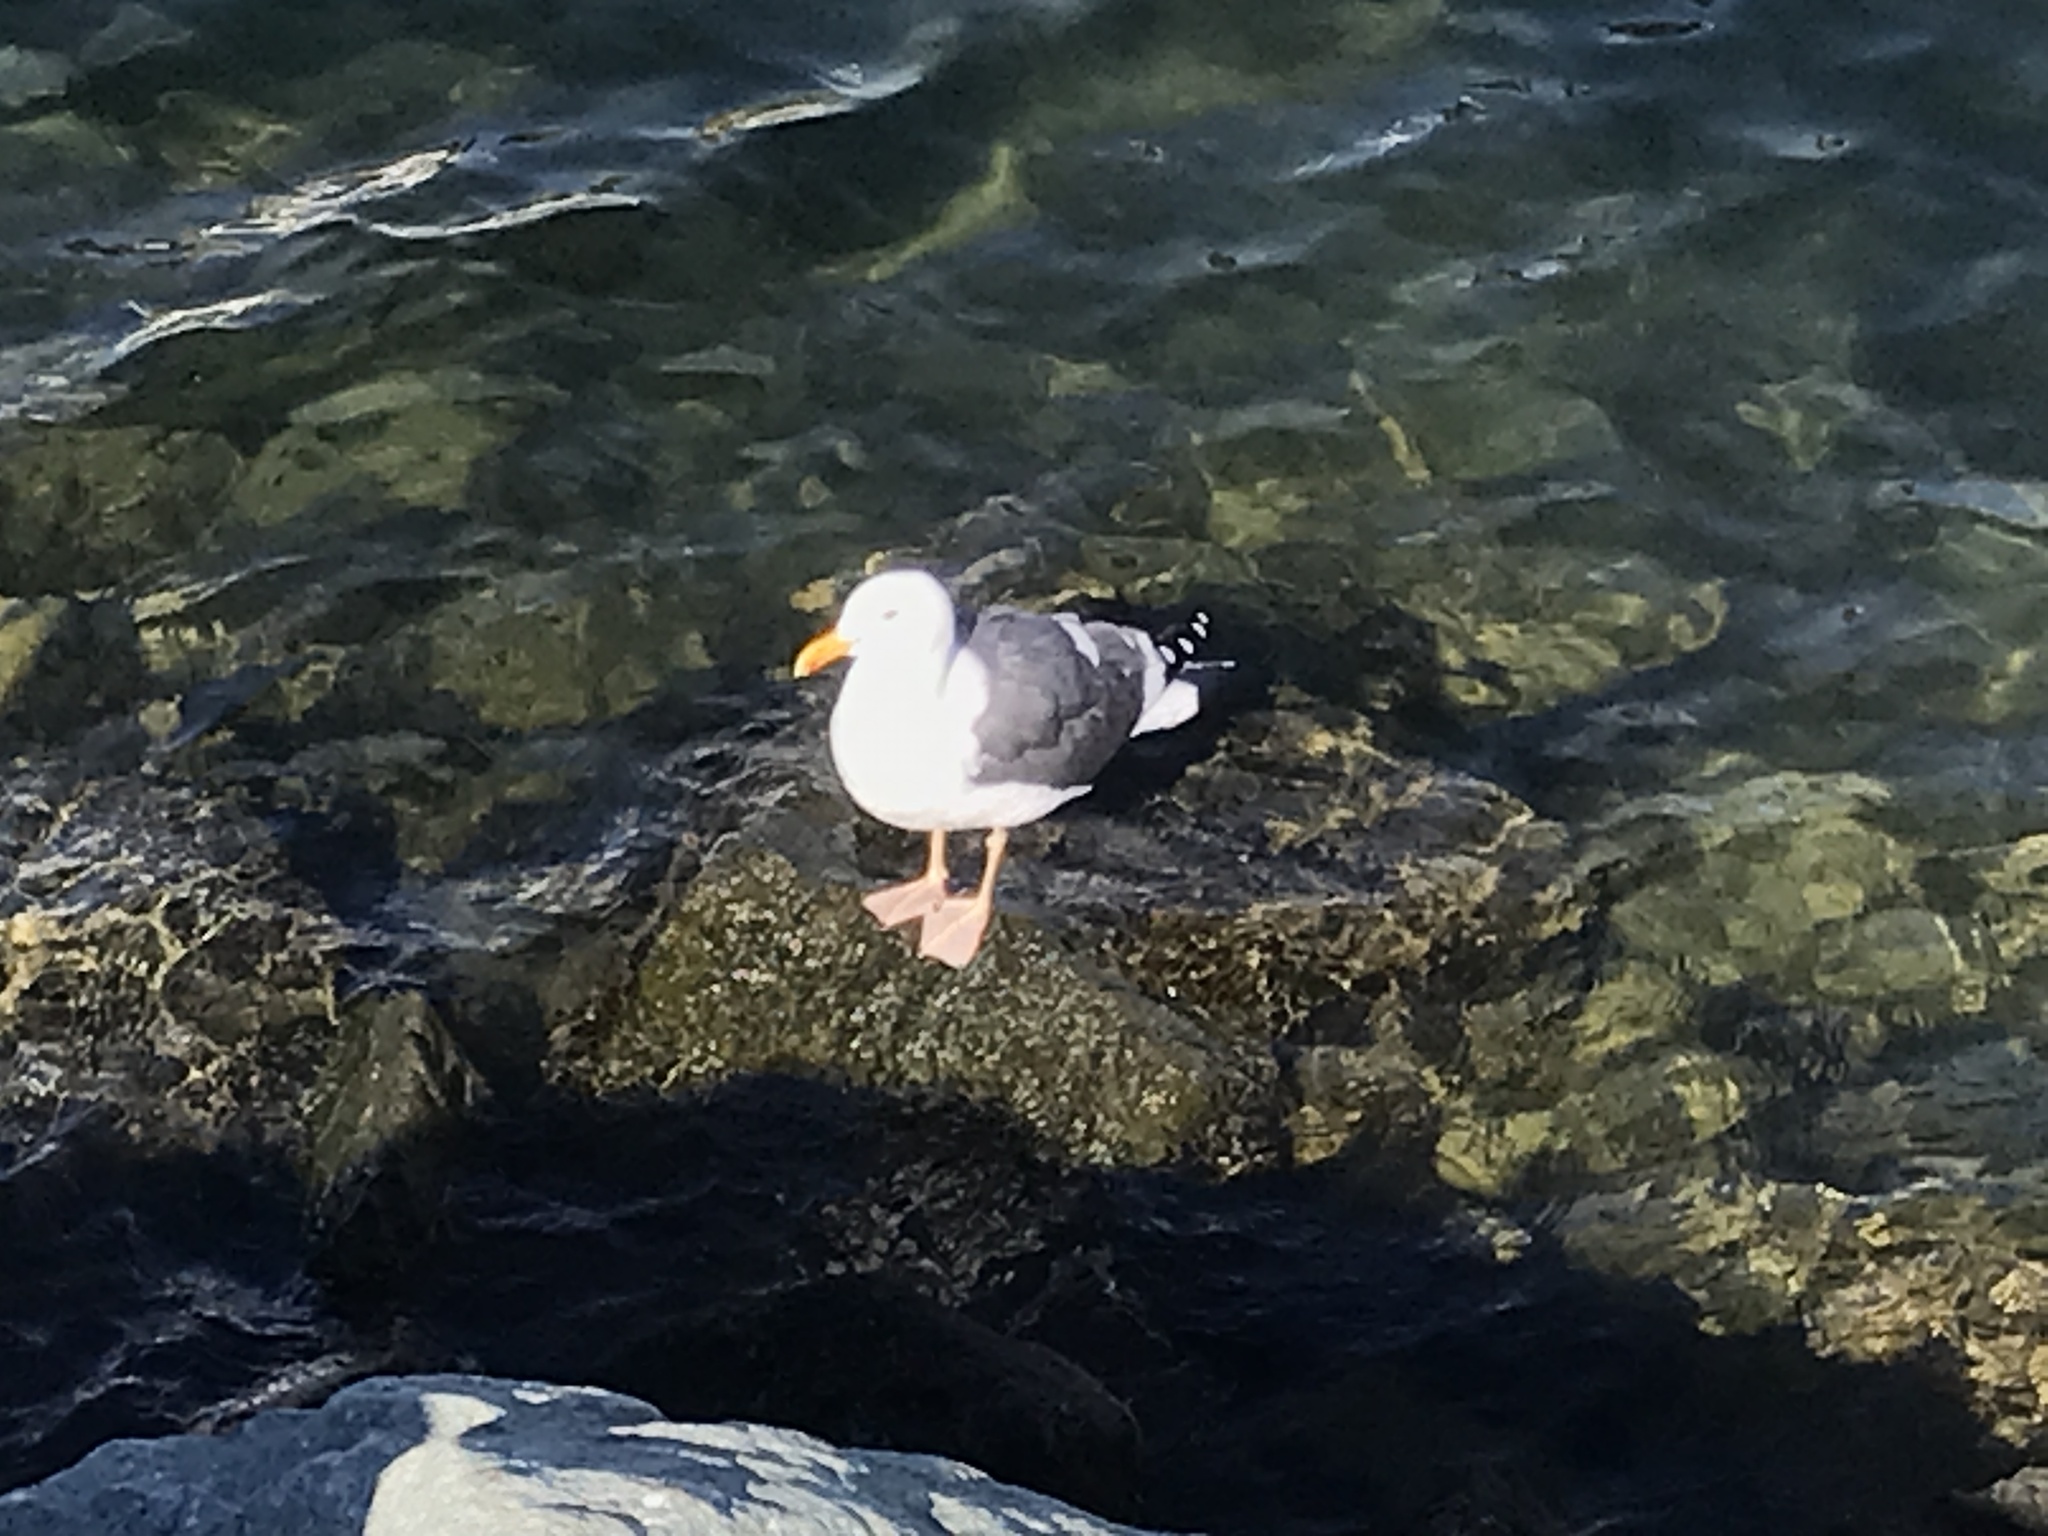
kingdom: Animalia
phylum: Chordata
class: Aves
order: Charadriiformes
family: Laridae
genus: Larus
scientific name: Larus occidentalis
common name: Western gull
